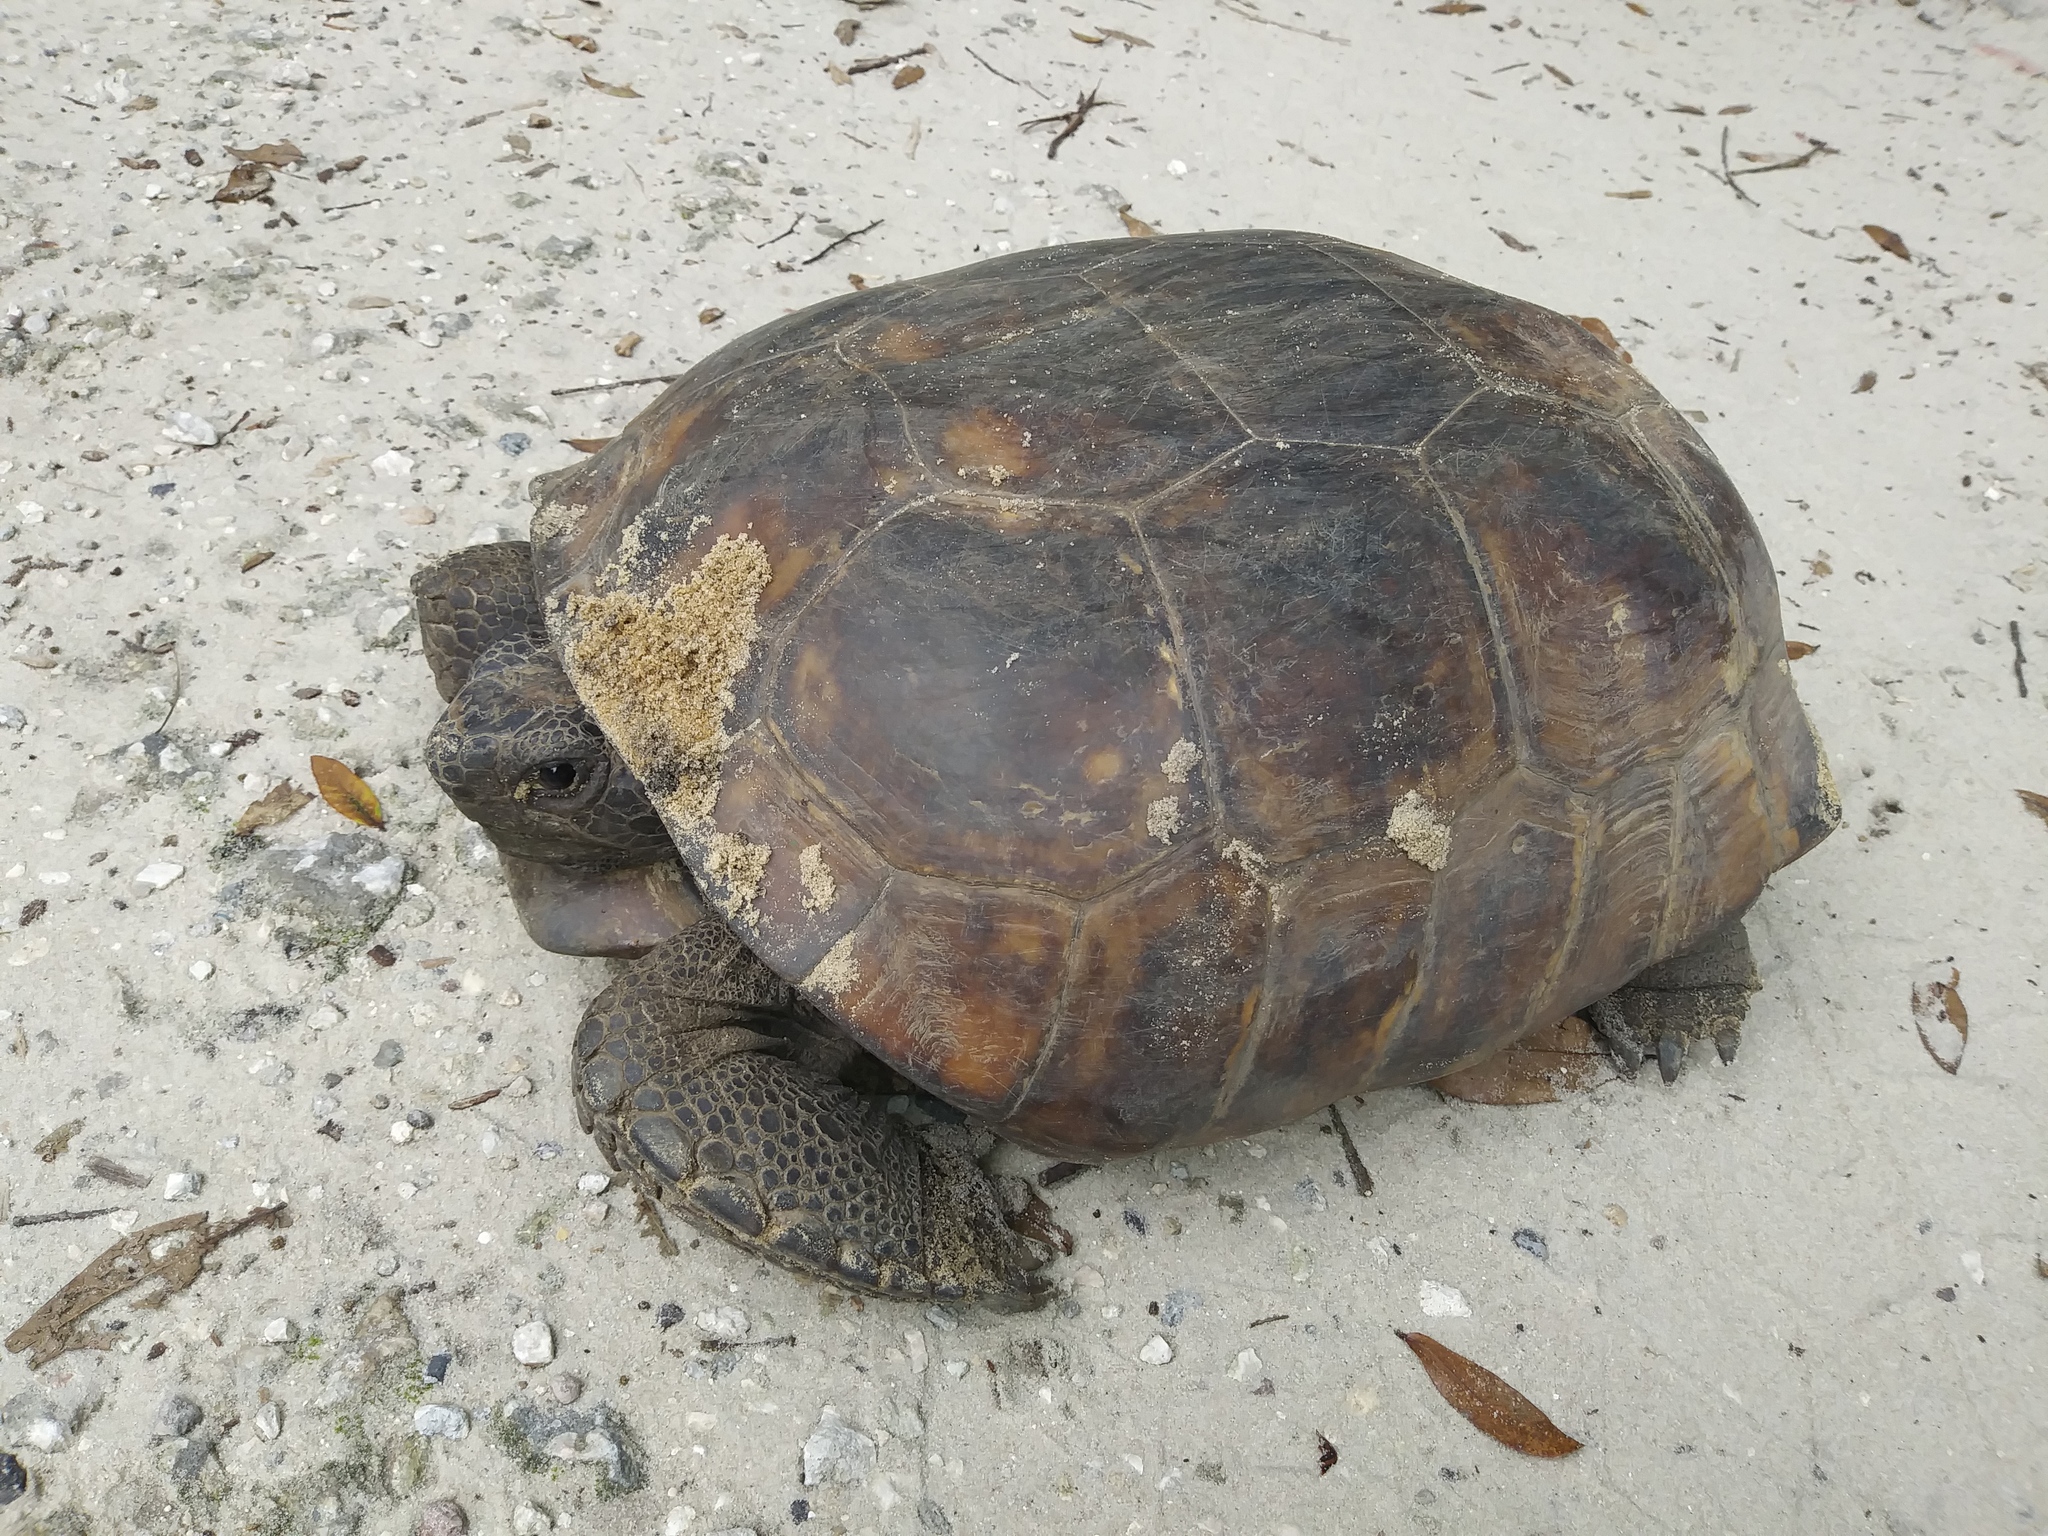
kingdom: Animalia
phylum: Chordata
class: Testudines
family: Testudinidae
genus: Gopherus
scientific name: Gopherus polyphemus
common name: Florida gopher tortoise
